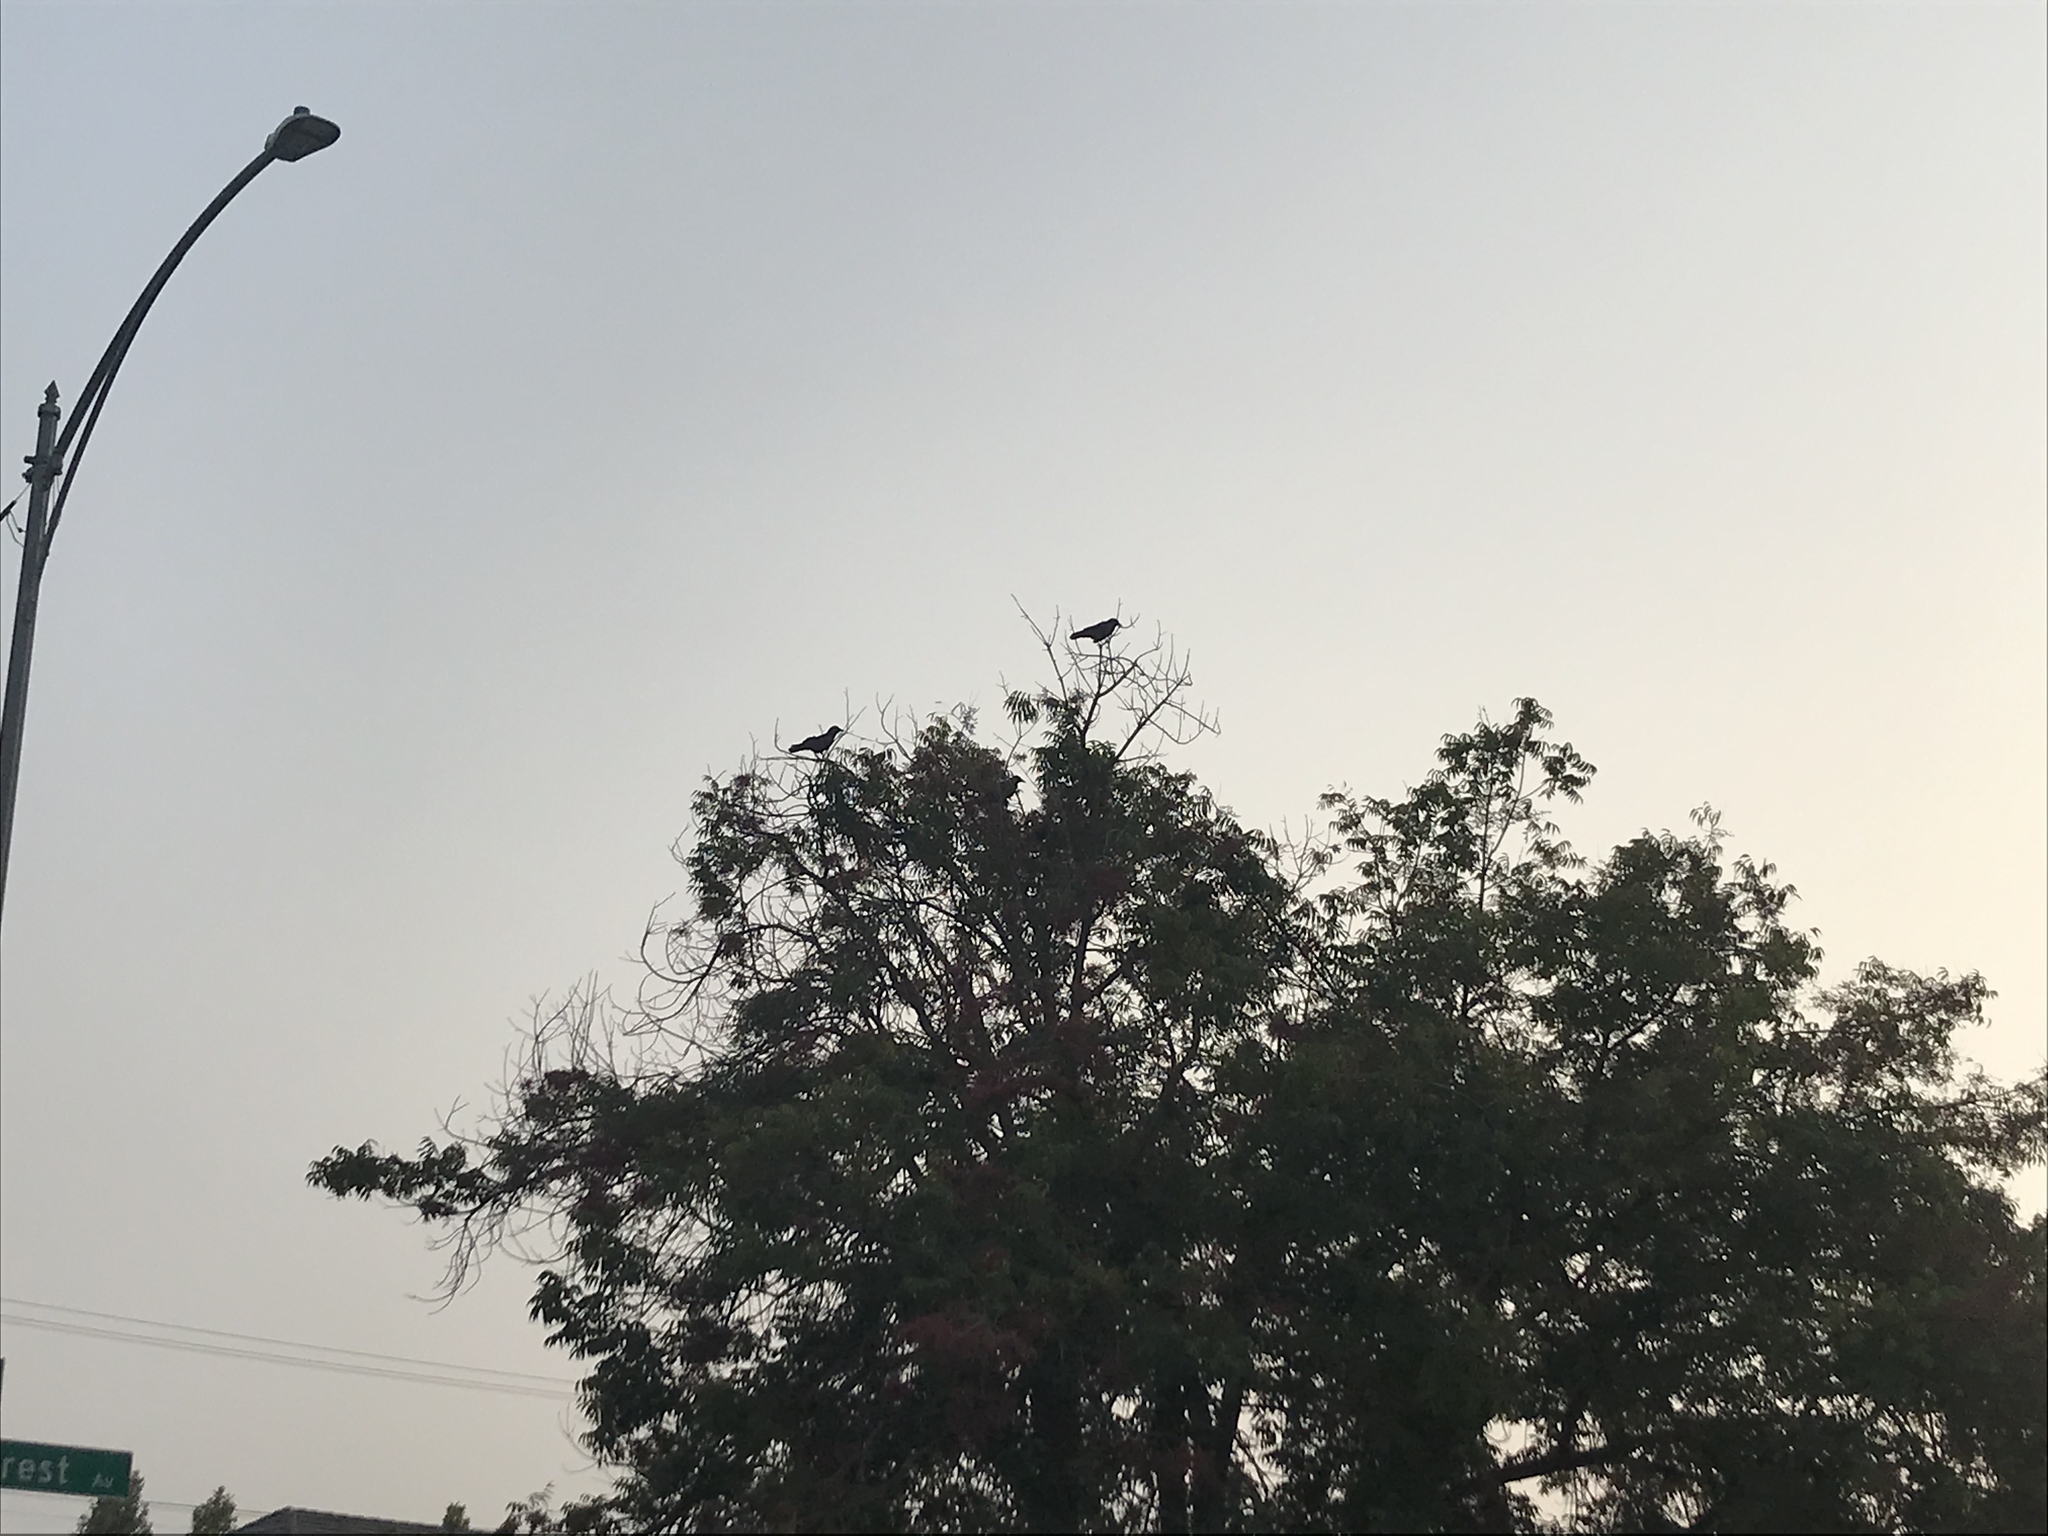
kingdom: Animalia
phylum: Chordata
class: Aves
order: Passeriformes
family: Corvidae
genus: Corvus
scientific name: Corvus brachyrhynchos
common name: American crow
